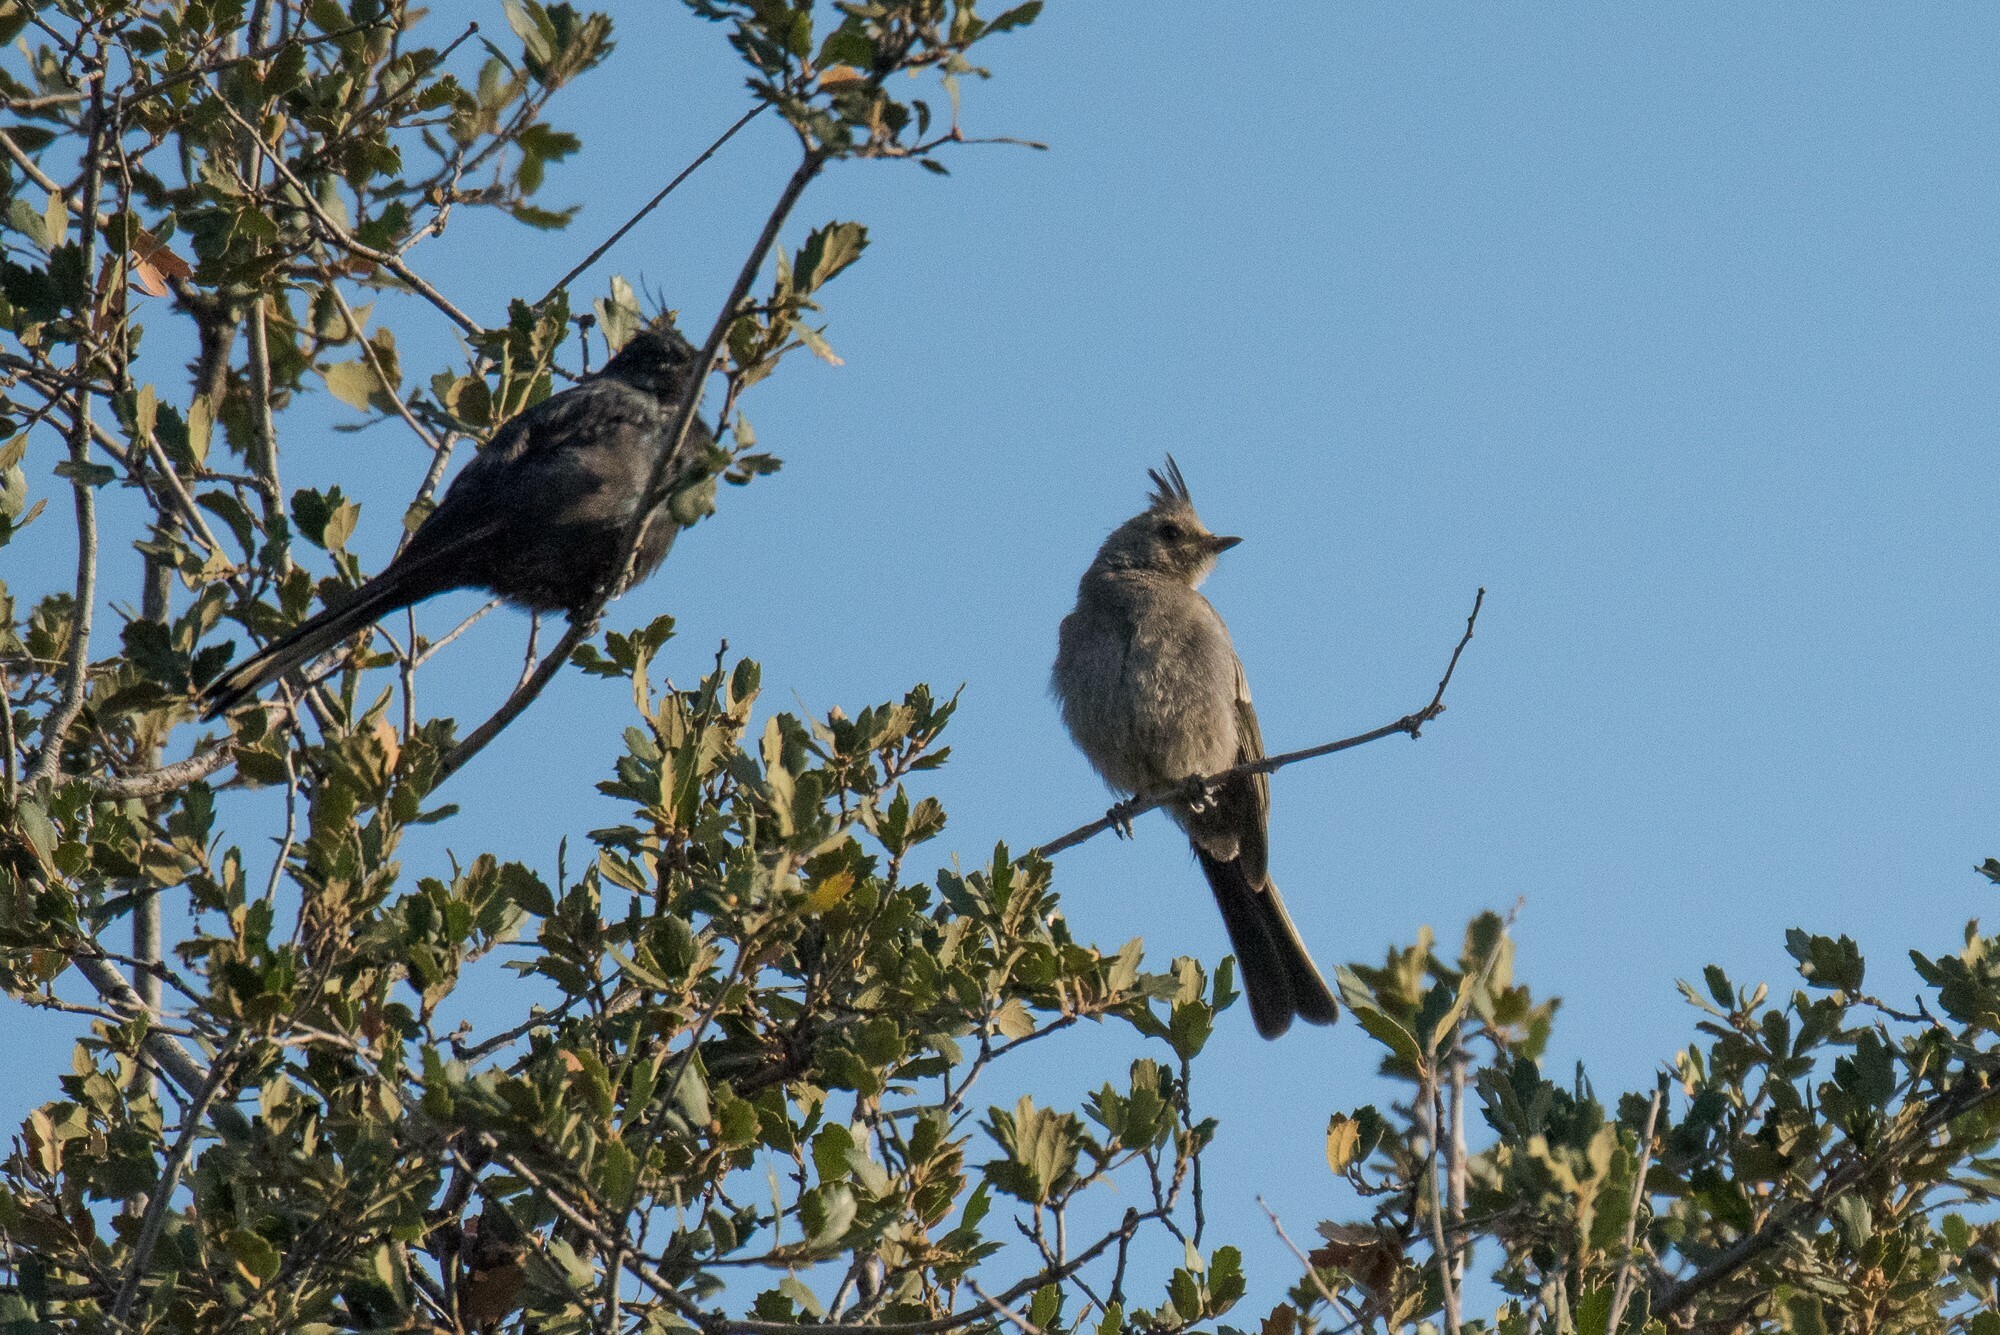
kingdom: Animalia
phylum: Chordata
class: Aves
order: Passeriformes
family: Ptilogonatidae
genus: Phainopepla
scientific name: Phainopepla nitens
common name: Phainopepla
